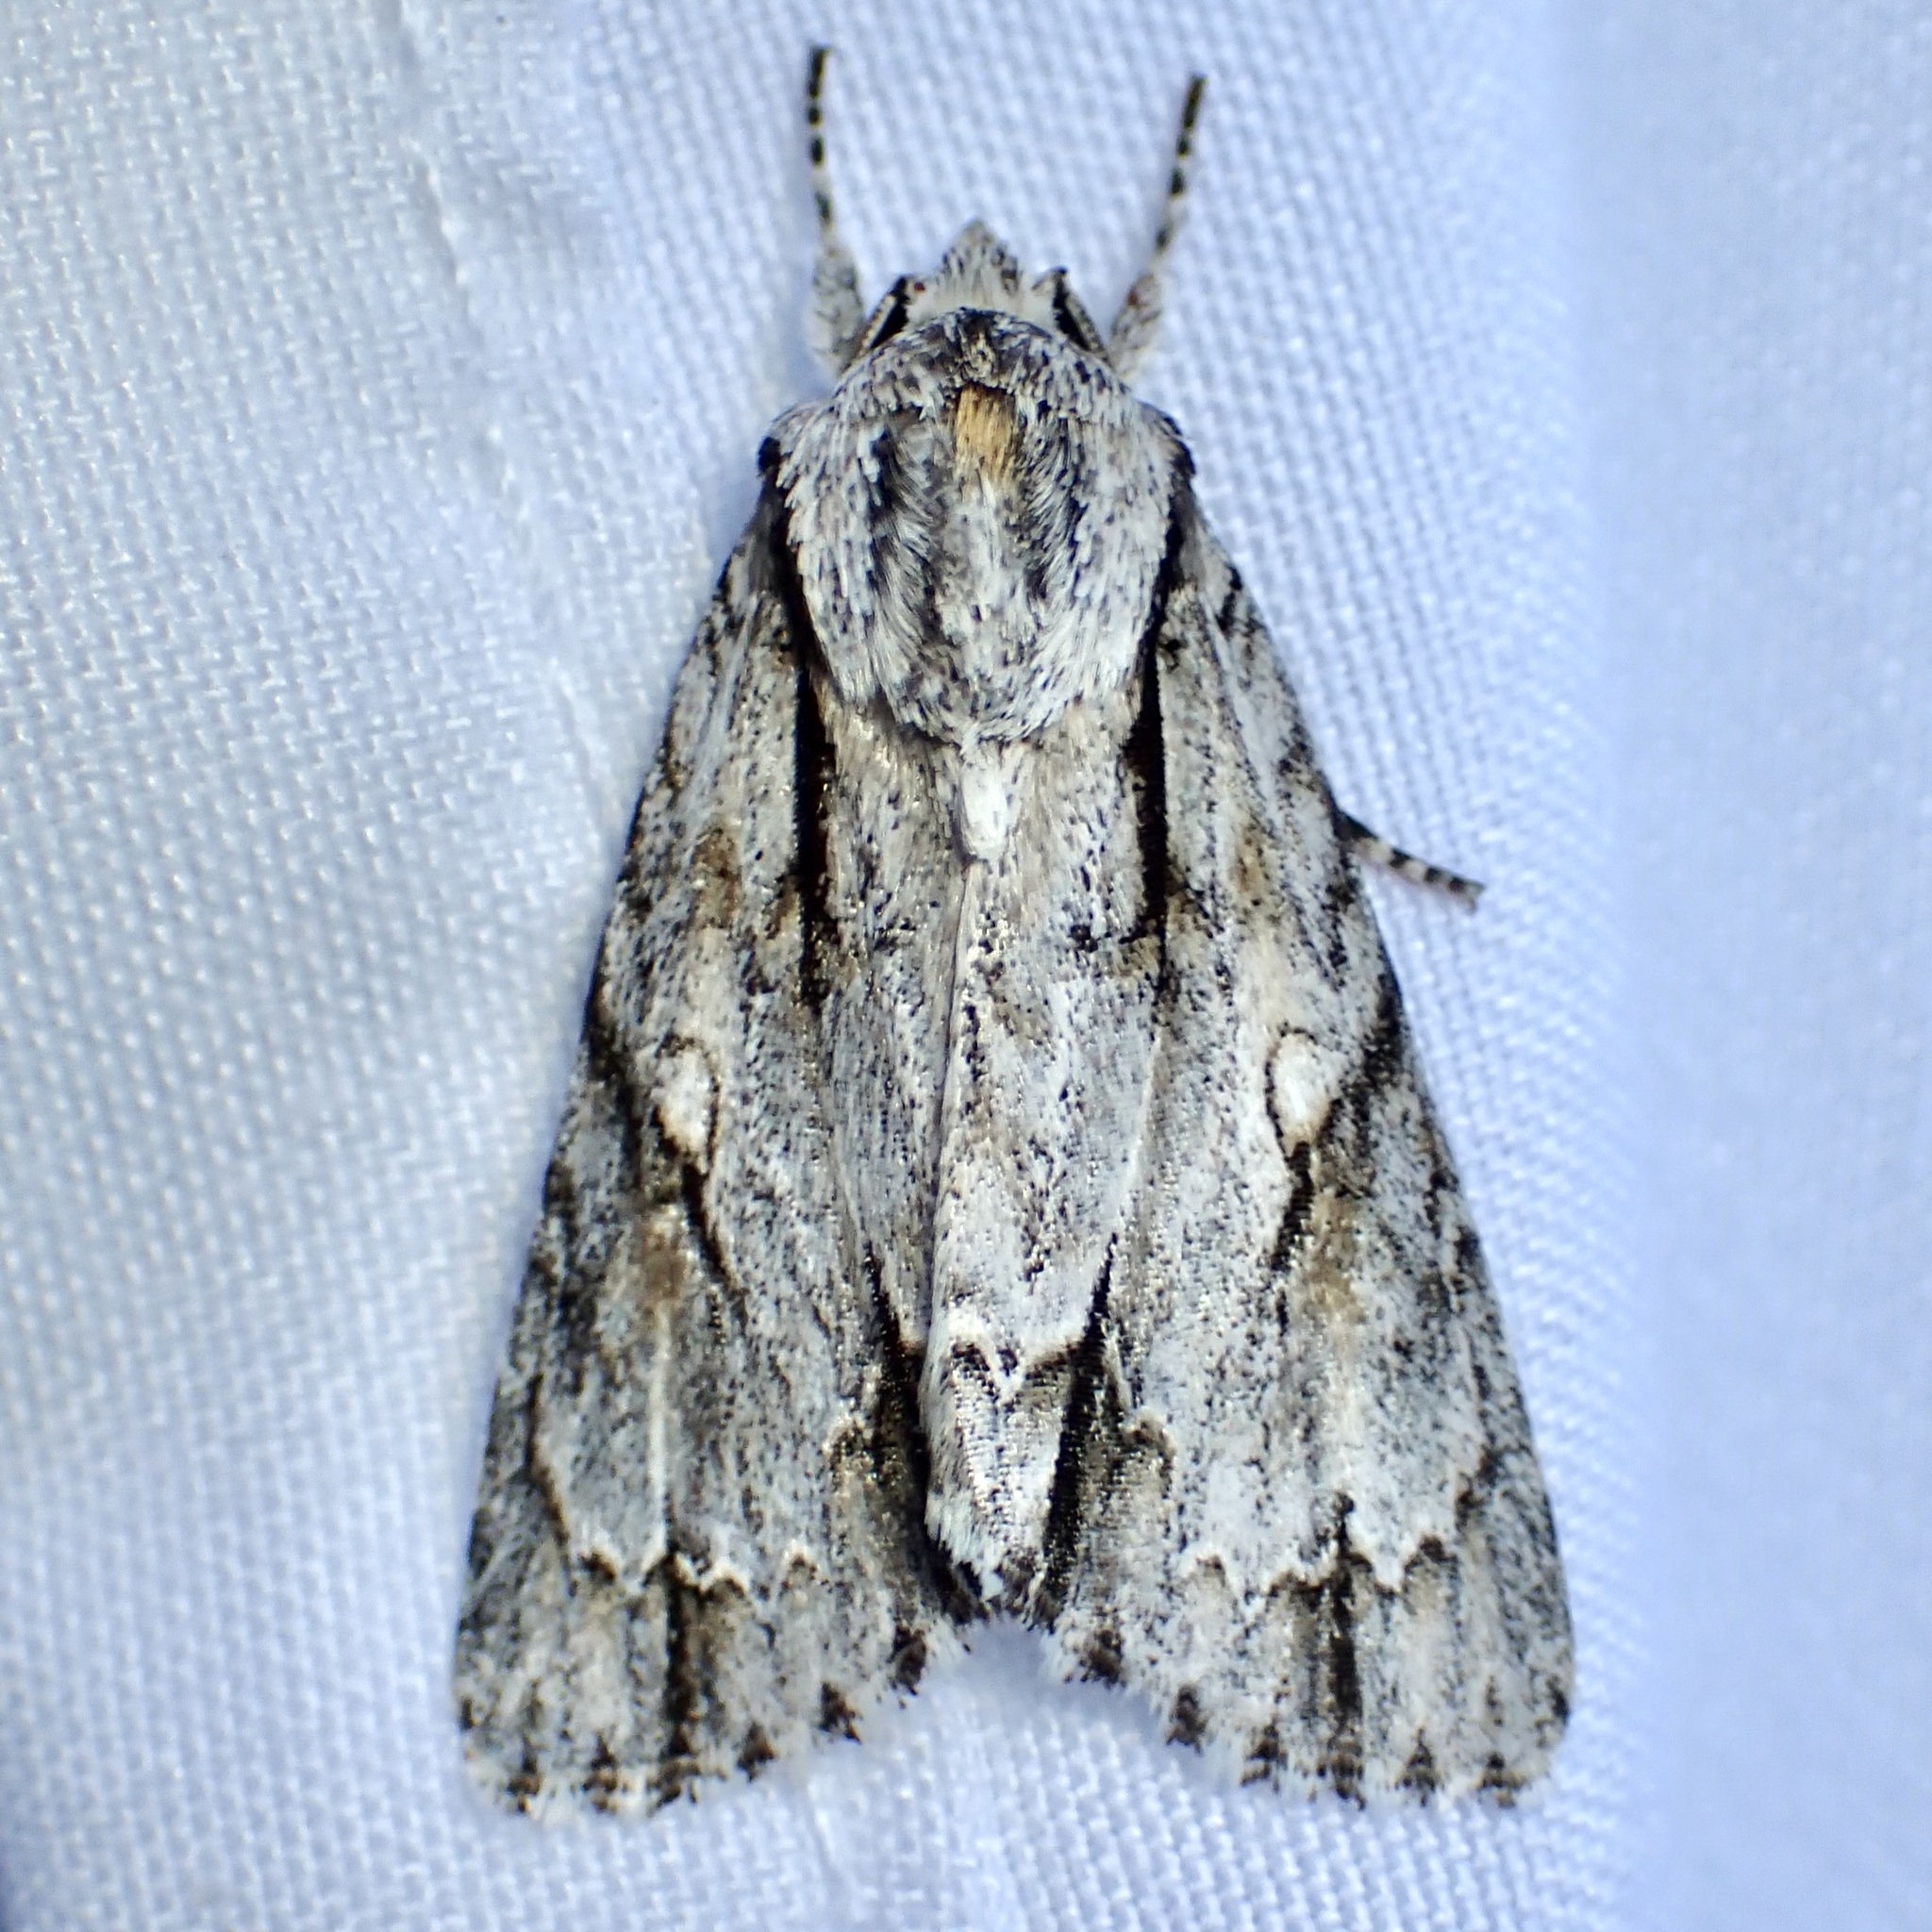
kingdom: Animalia
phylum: Arthropoda
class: Insecta
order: Lepidoptera
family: Noctuidae
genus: Acronicta
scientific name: Acronicta thoracica
